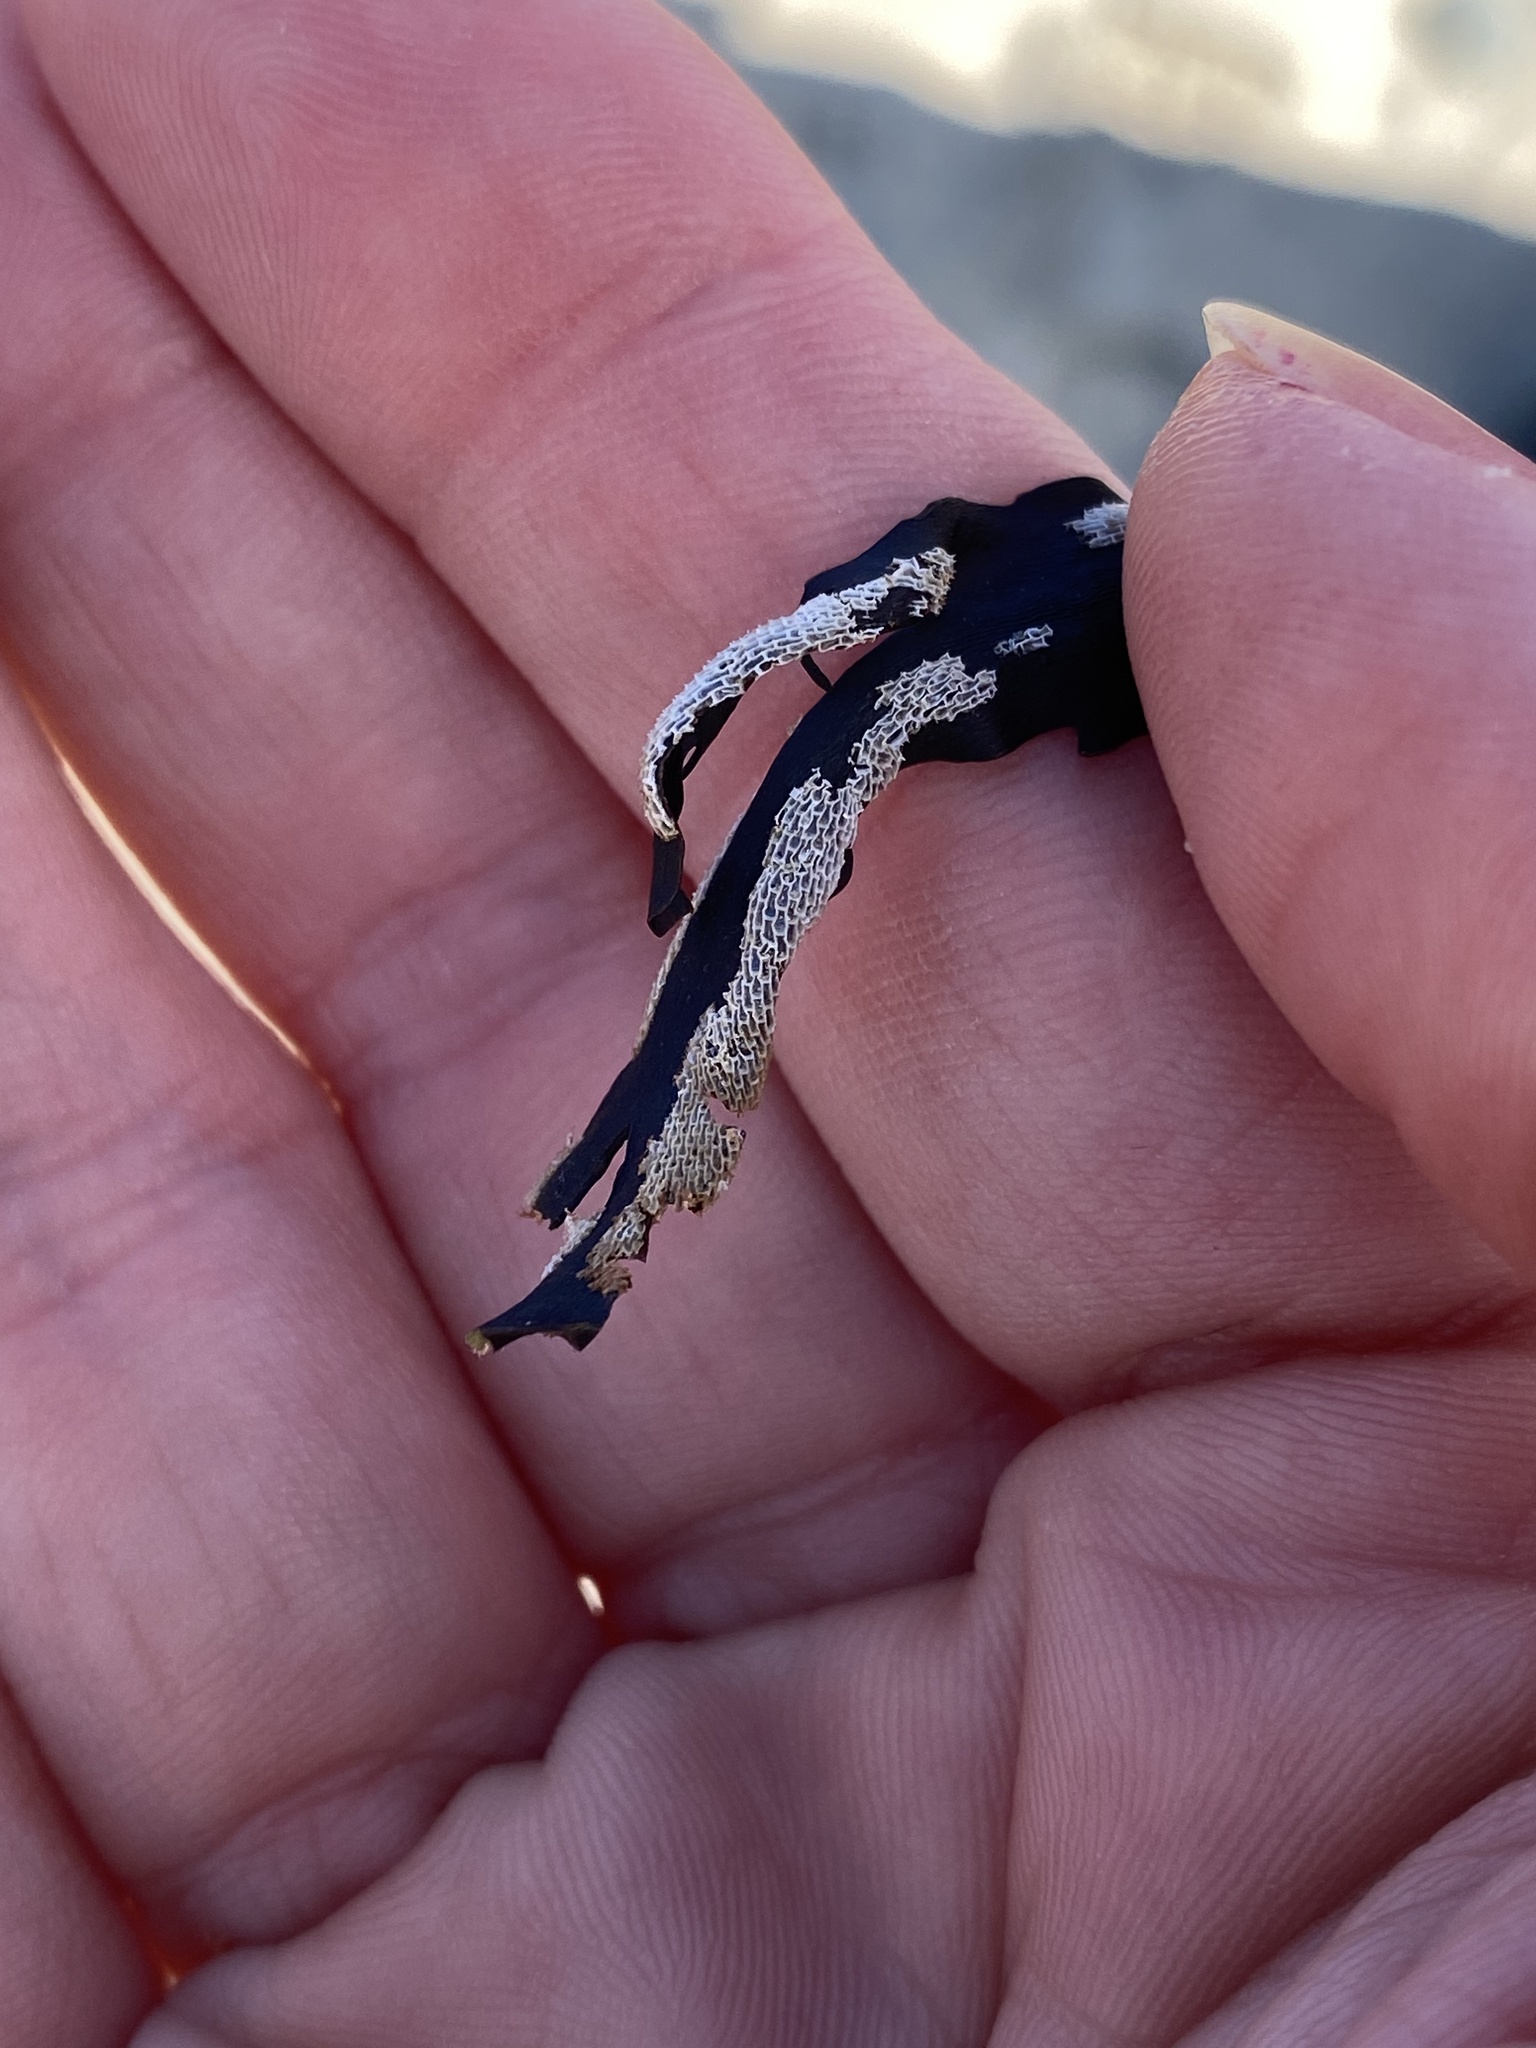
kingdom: Animalia
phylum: Bryozoa
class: Gymnolaemata
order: Cheilostomatida
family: Membraniporidae
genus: Membranipora
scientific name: Membranipora membranacea
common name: Sea mat
